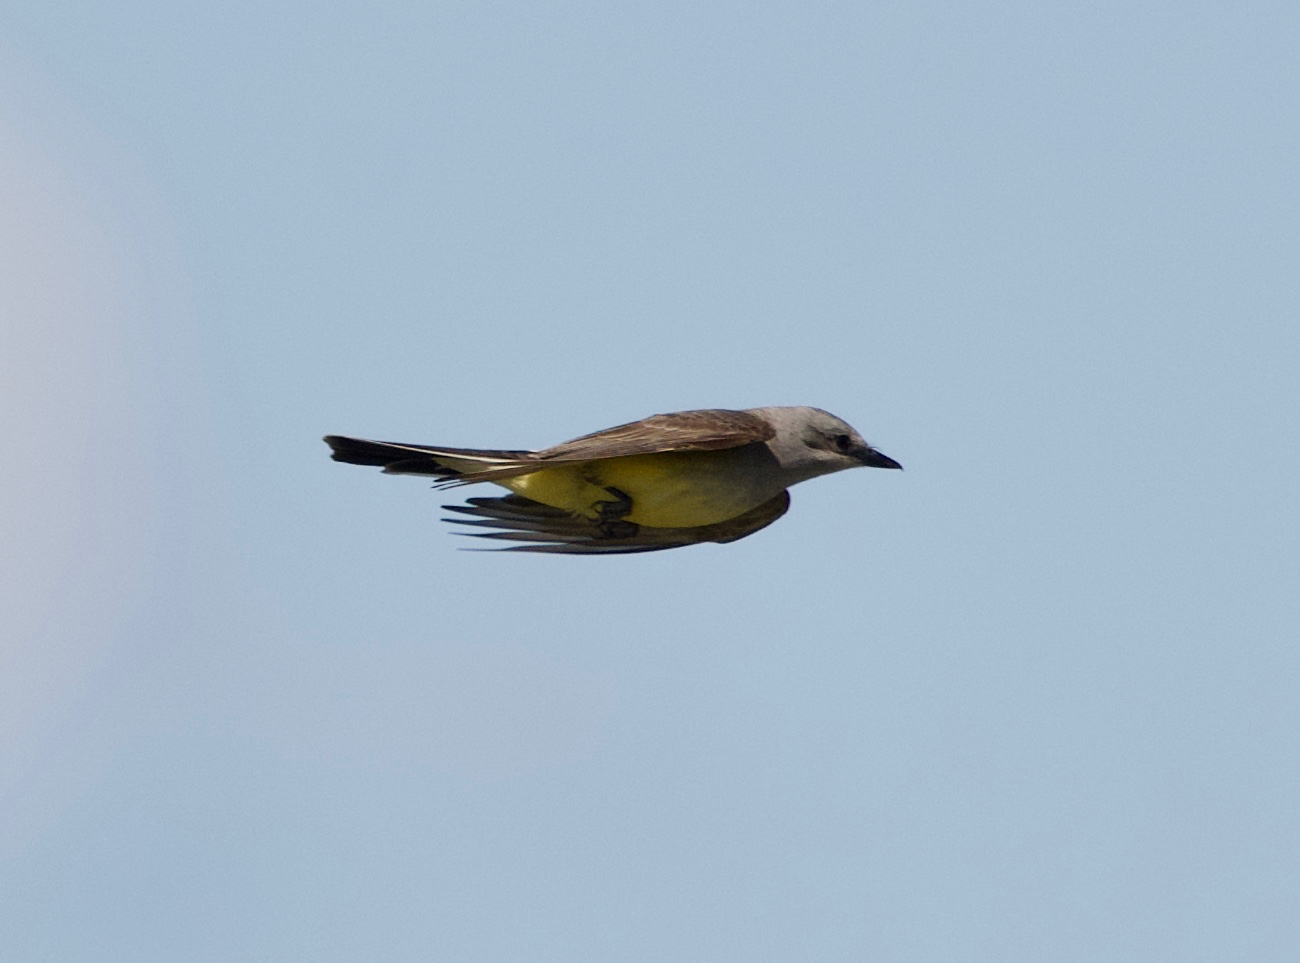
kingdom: Animalia
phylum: Chordata
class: Aves
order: Passeriformes
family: Tyrannidae
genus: Tyrannus
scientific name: Tyrannus verticalis
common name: Western kingbird
